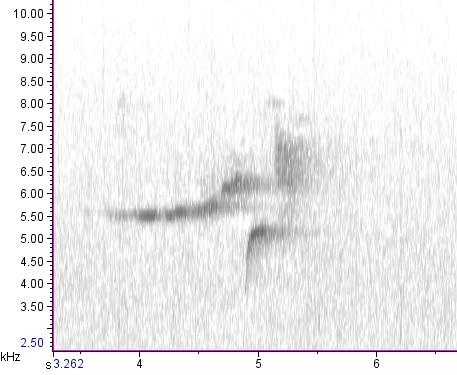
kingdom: Animalia
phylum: Chordata
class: Aves
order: Passeriformes
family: Parulidae
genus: Setophaga
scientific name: Setophaga virens
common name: Black-throated green warbler
